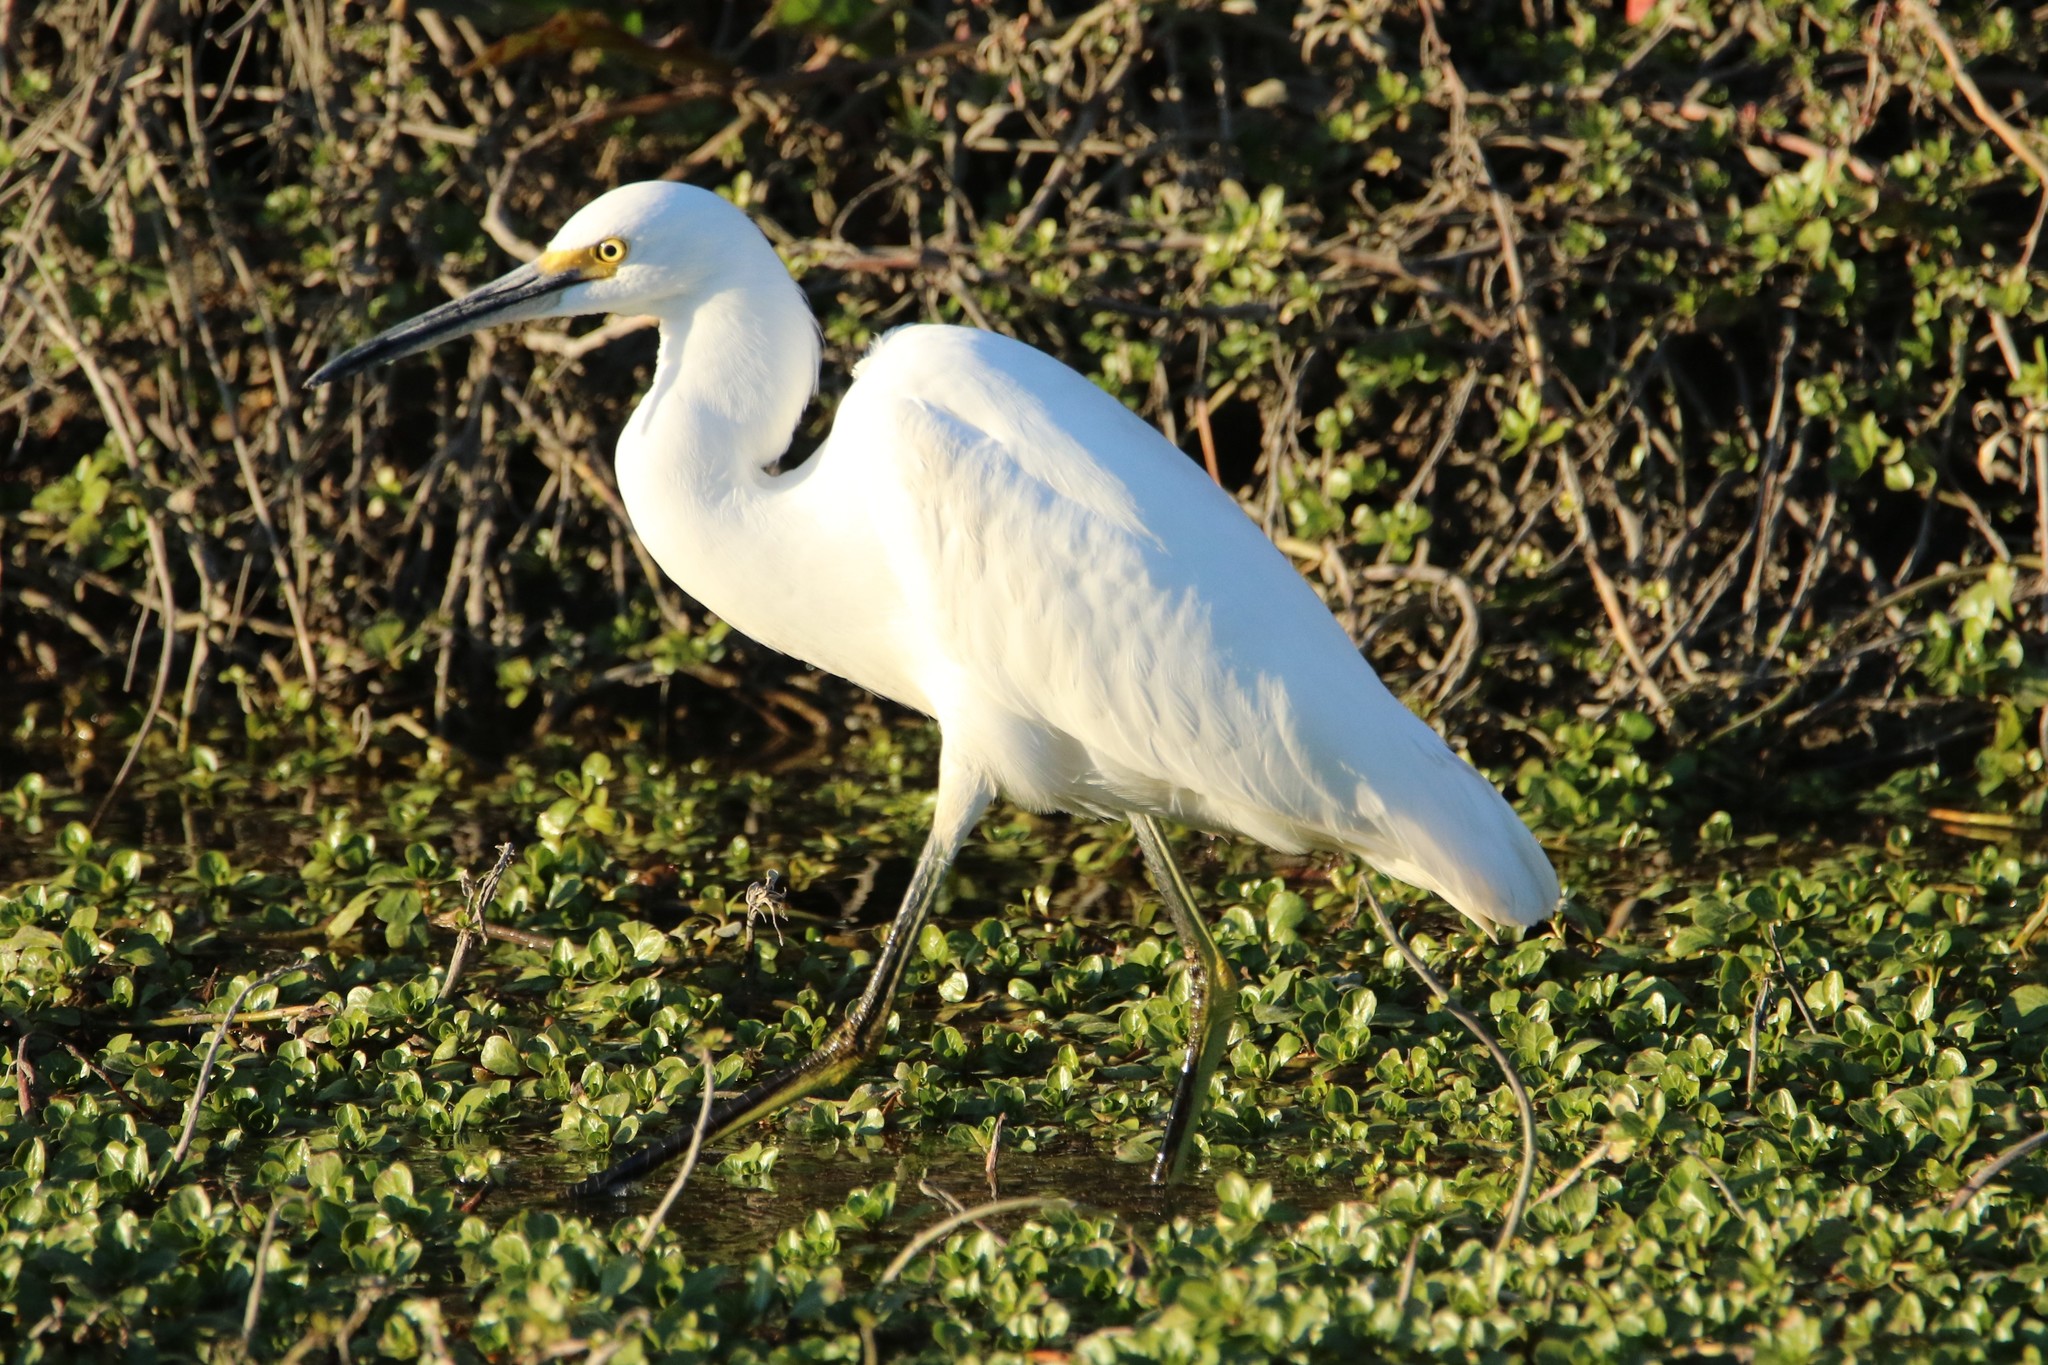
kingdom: Animalia
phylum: Chordata
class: Aves
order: Pelecaniformes
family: Ardeidae
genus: Egretta
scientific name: Egretta thula
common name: Snowy egret
